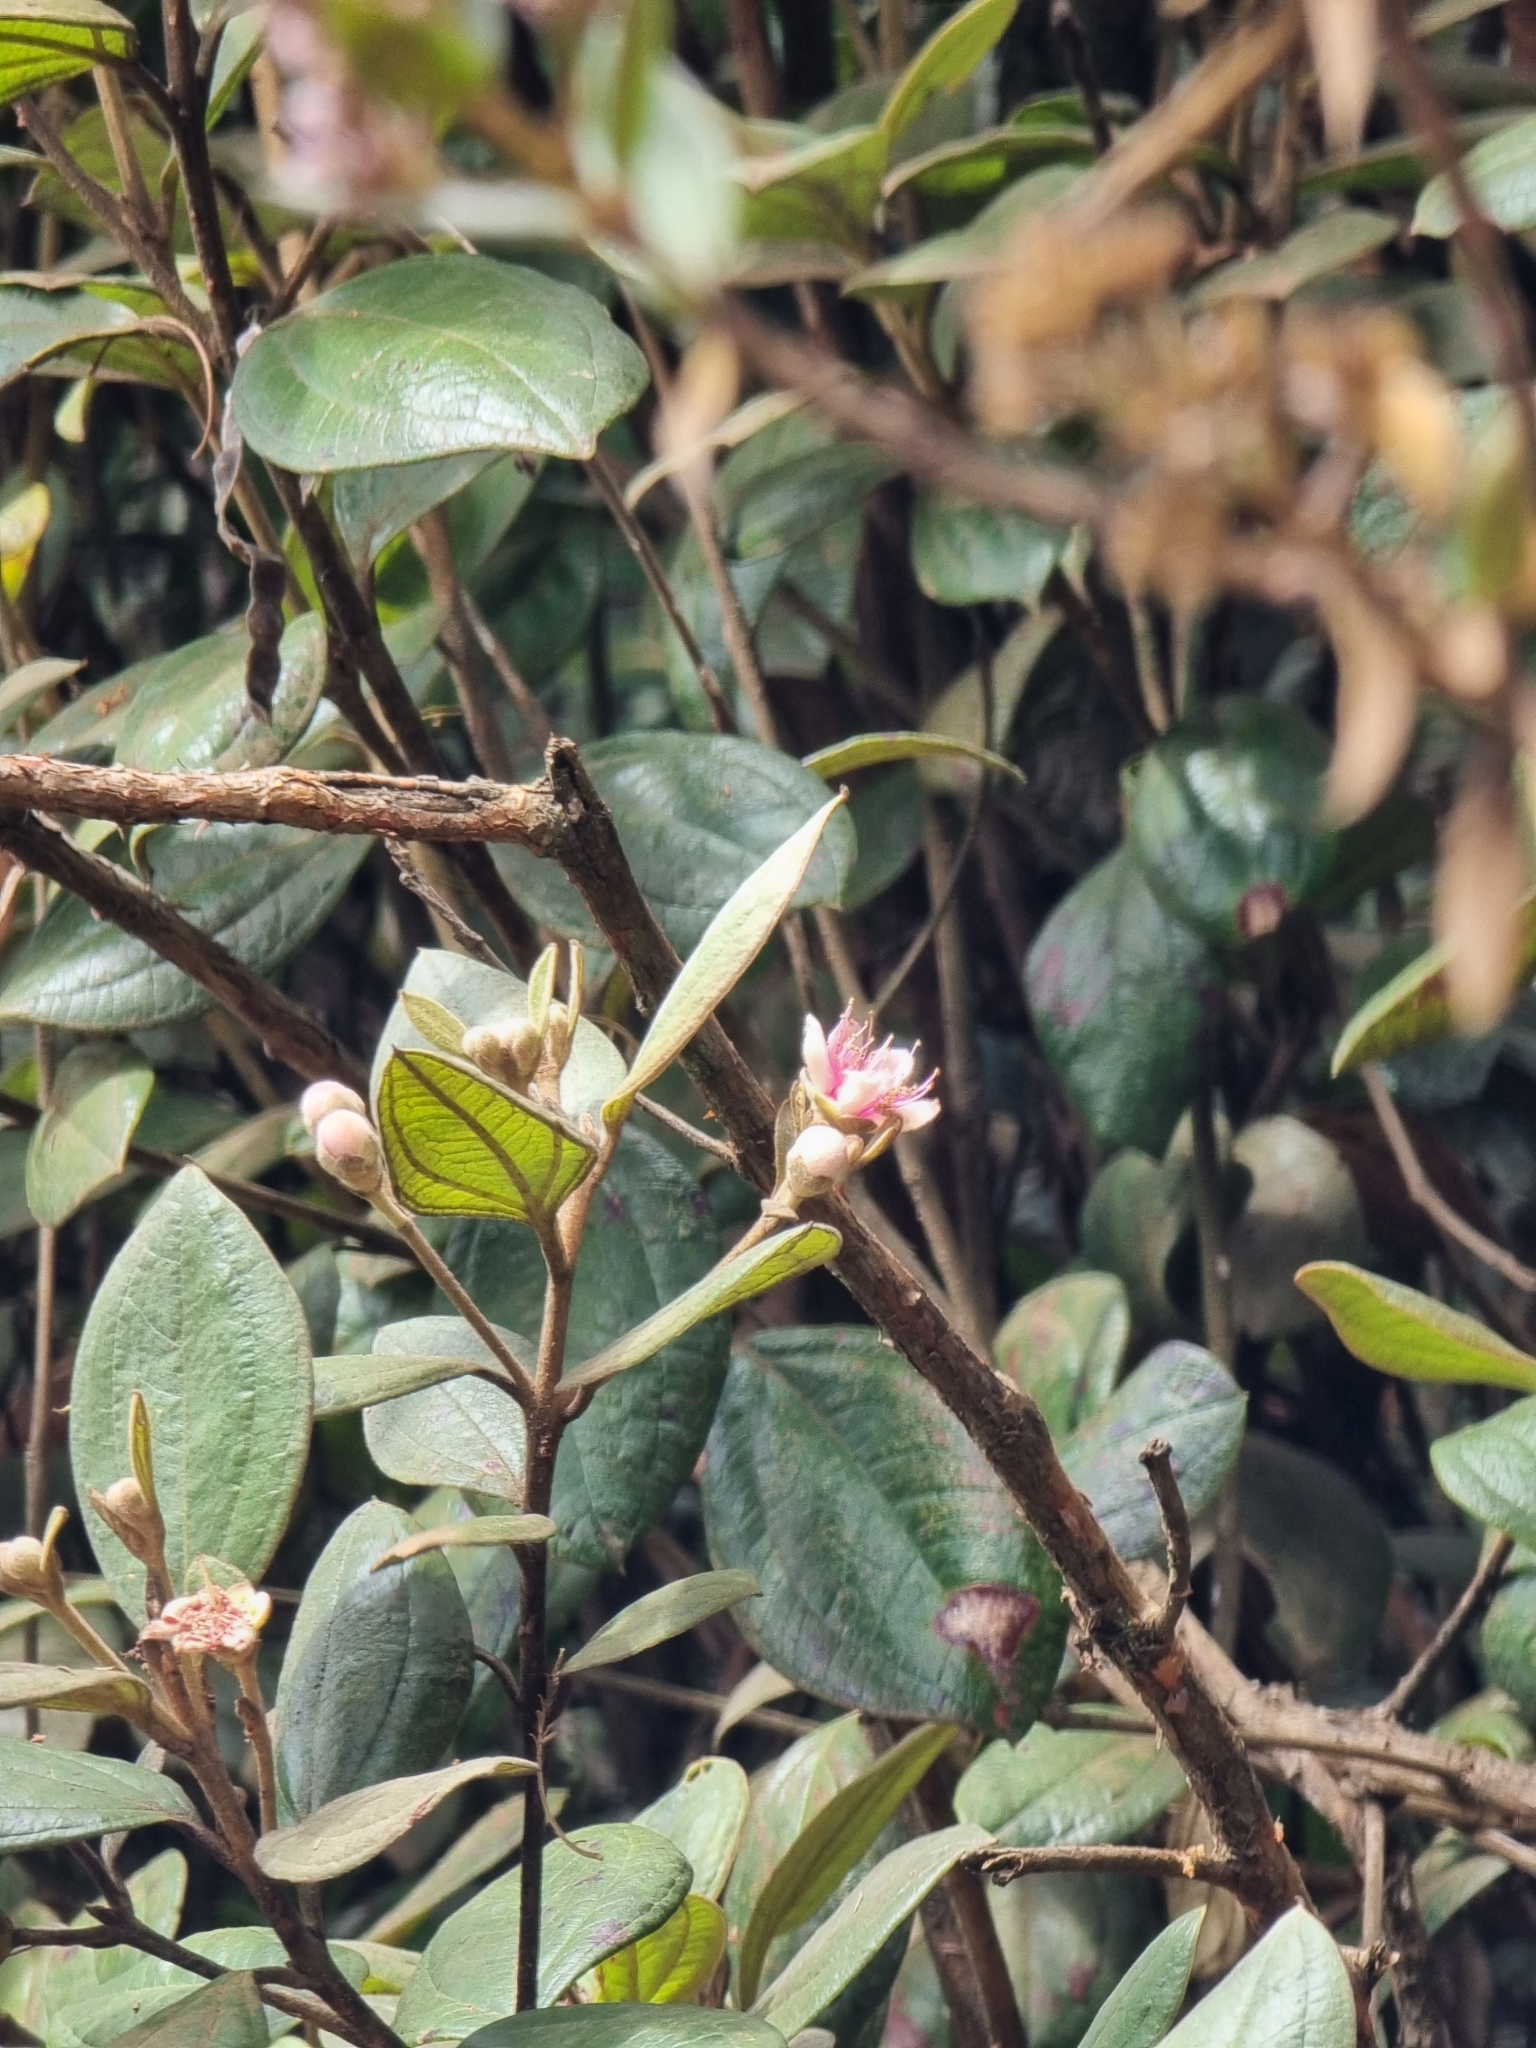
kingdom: Plantae
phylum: Tracheophyta
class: Magnoliopsida
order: Myrtales
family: Myrtaceae
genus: Rhodomyrtus
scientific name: Rhodomyrtus tomentosa
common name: Rose myrtle
